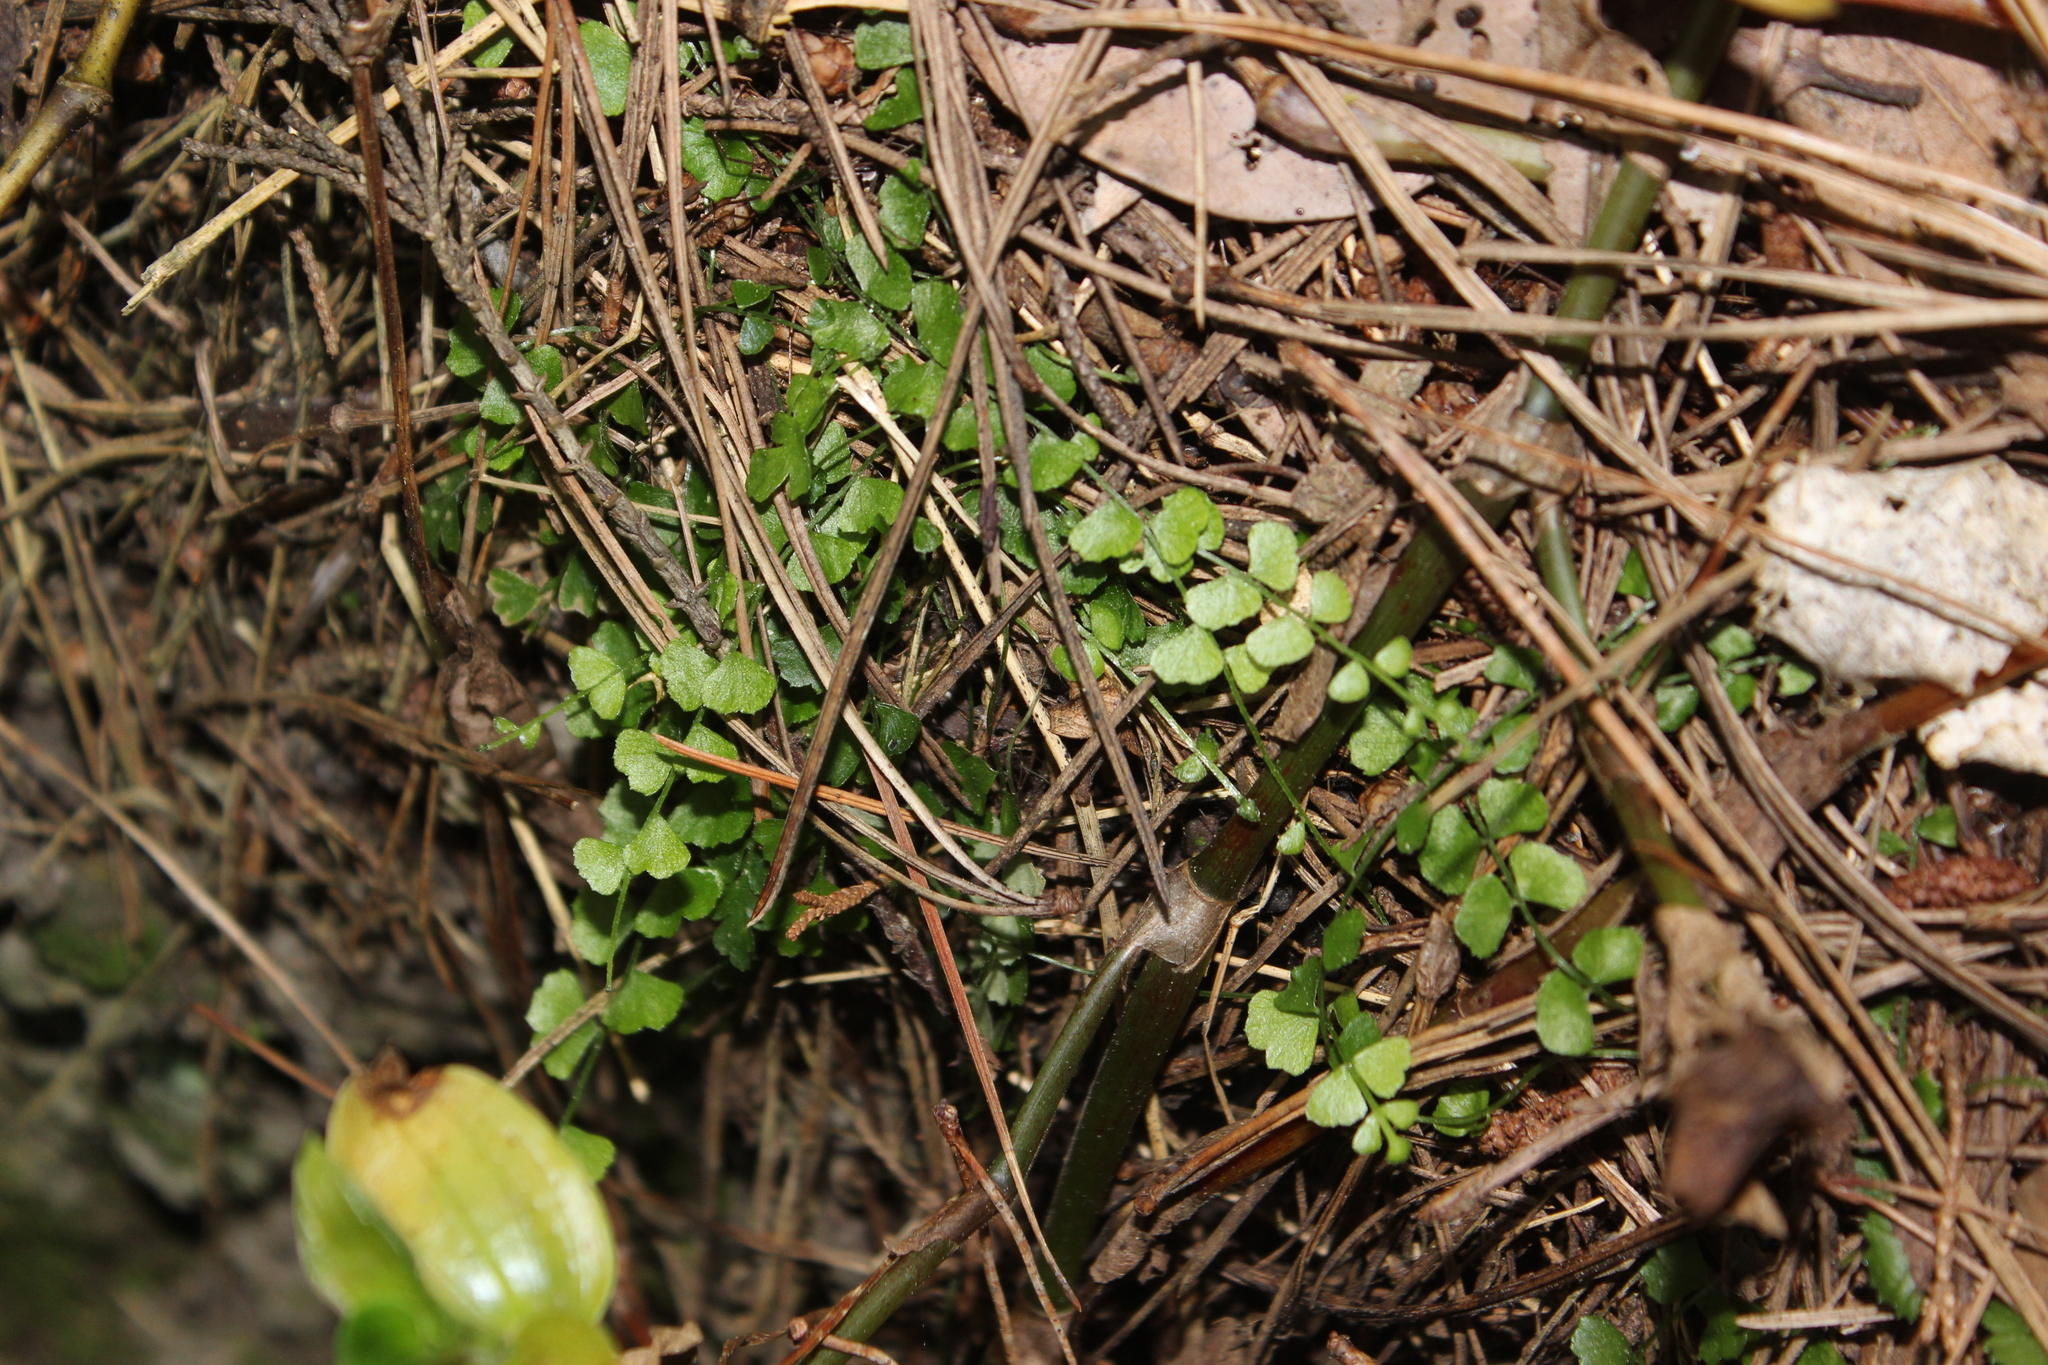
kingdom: Plantae
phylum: Tracheophyta
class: Polypodiopsida
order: Polypodiales
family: Aspleniaceae
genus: Asplenium
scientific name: Asplenium flabellifolium
